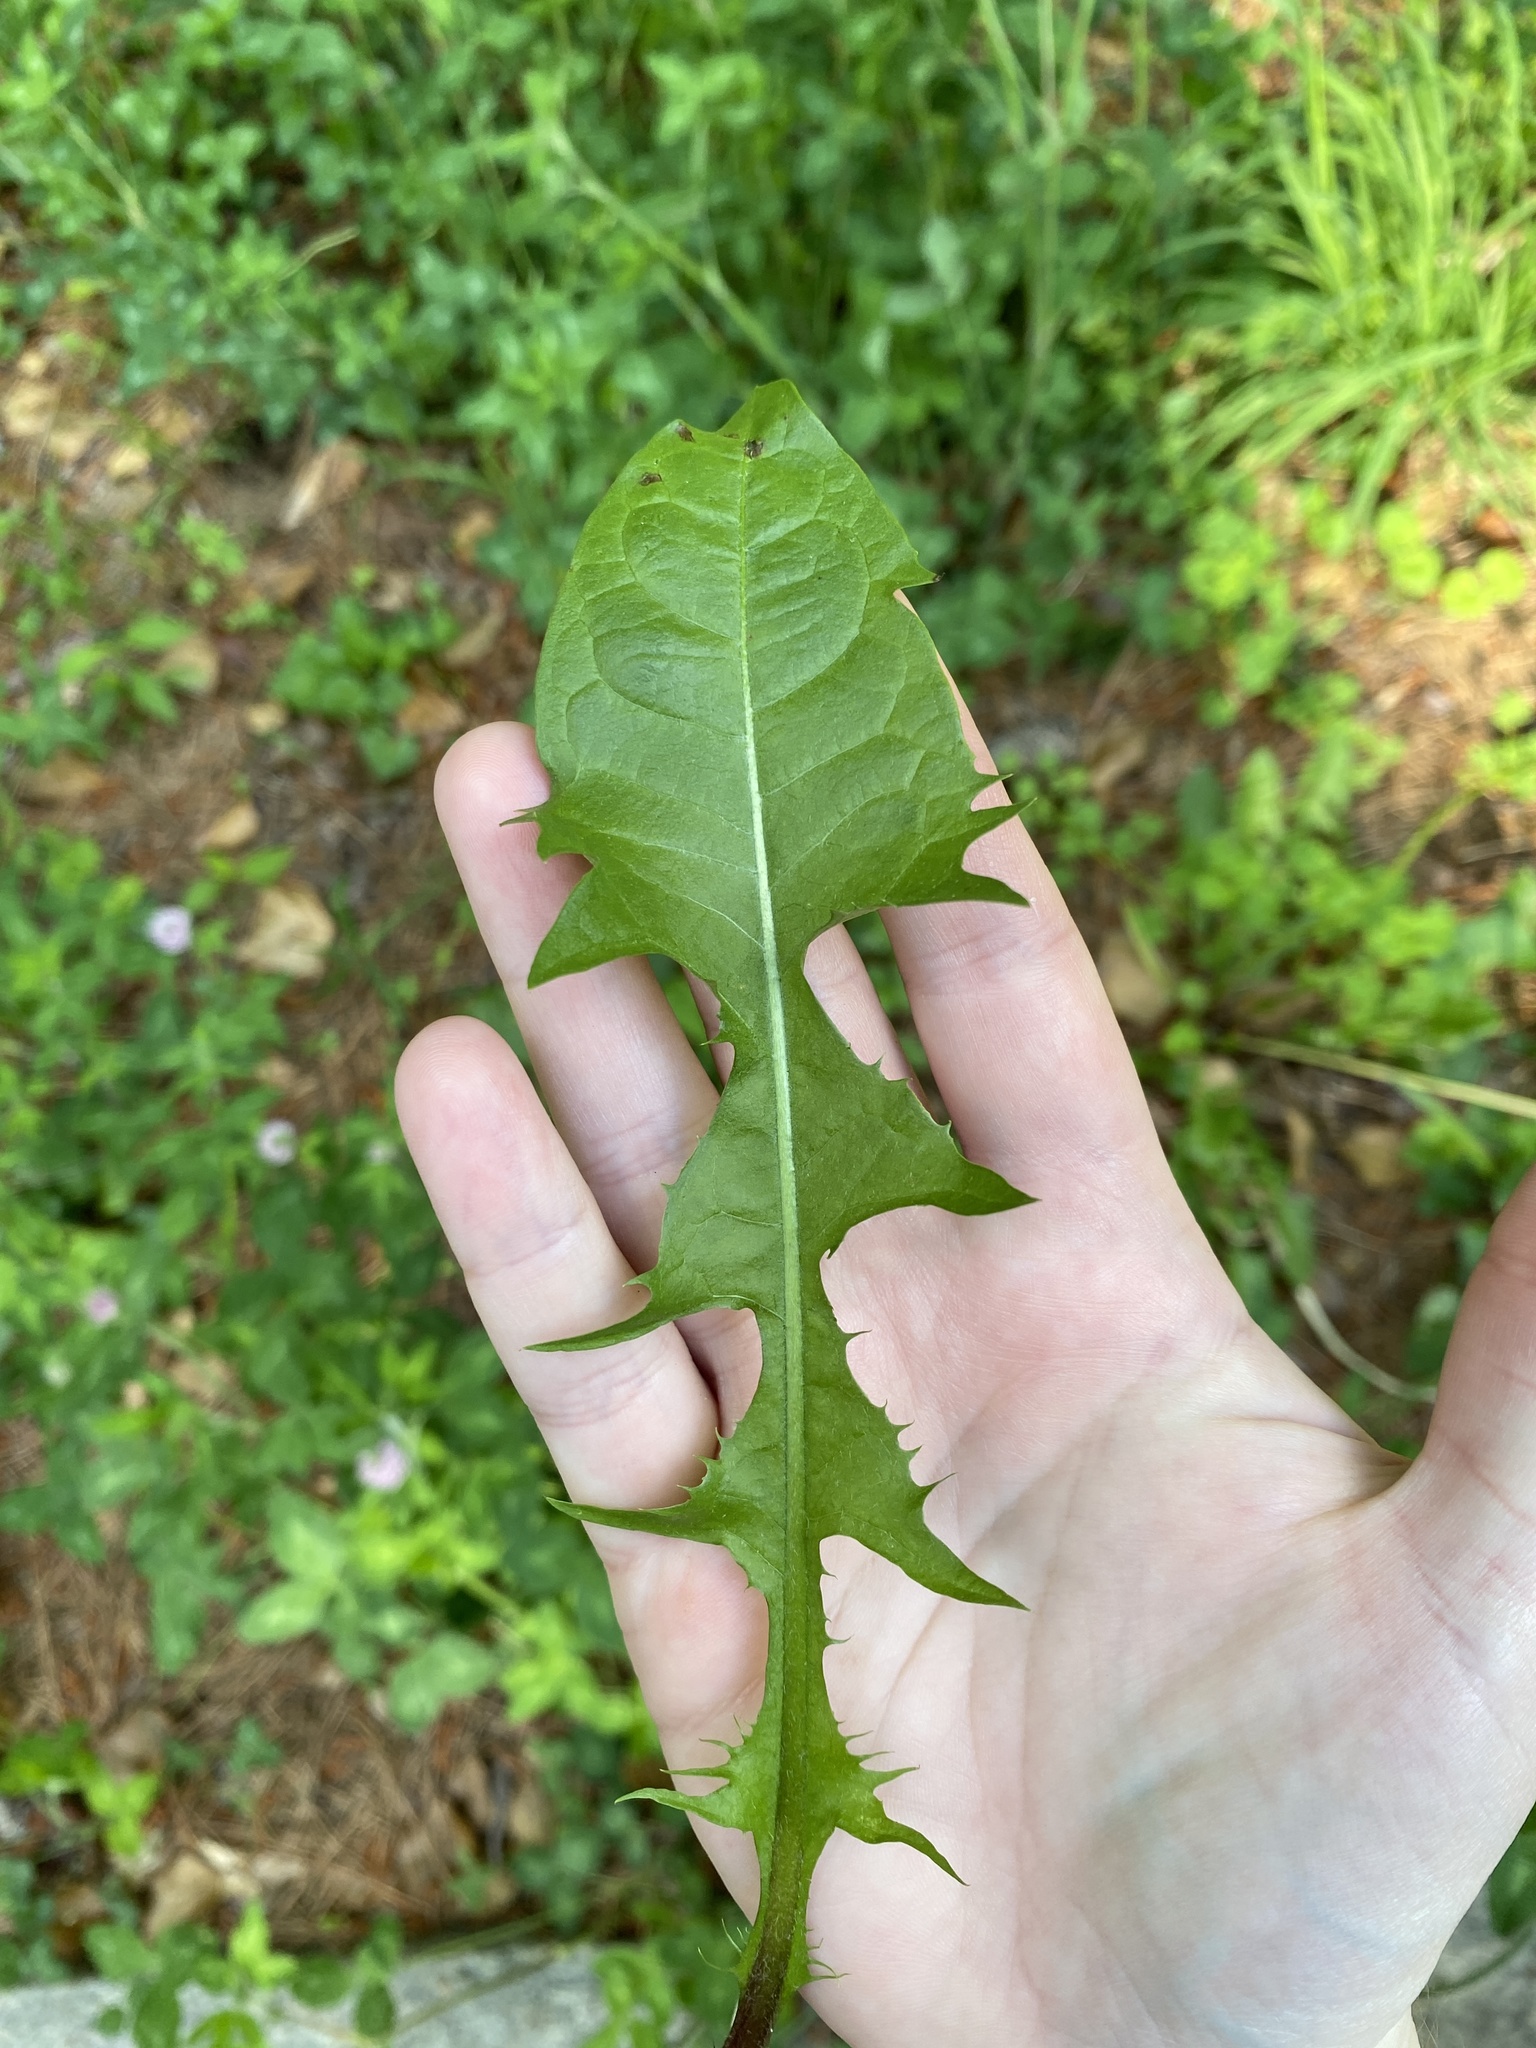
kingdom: Plantae
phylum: Tracheophyta
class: Magnoliopsida
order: Asterales
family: Asteraceae
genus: Taraxacum
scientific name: Taraxacum officinale
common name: Common dandelion
